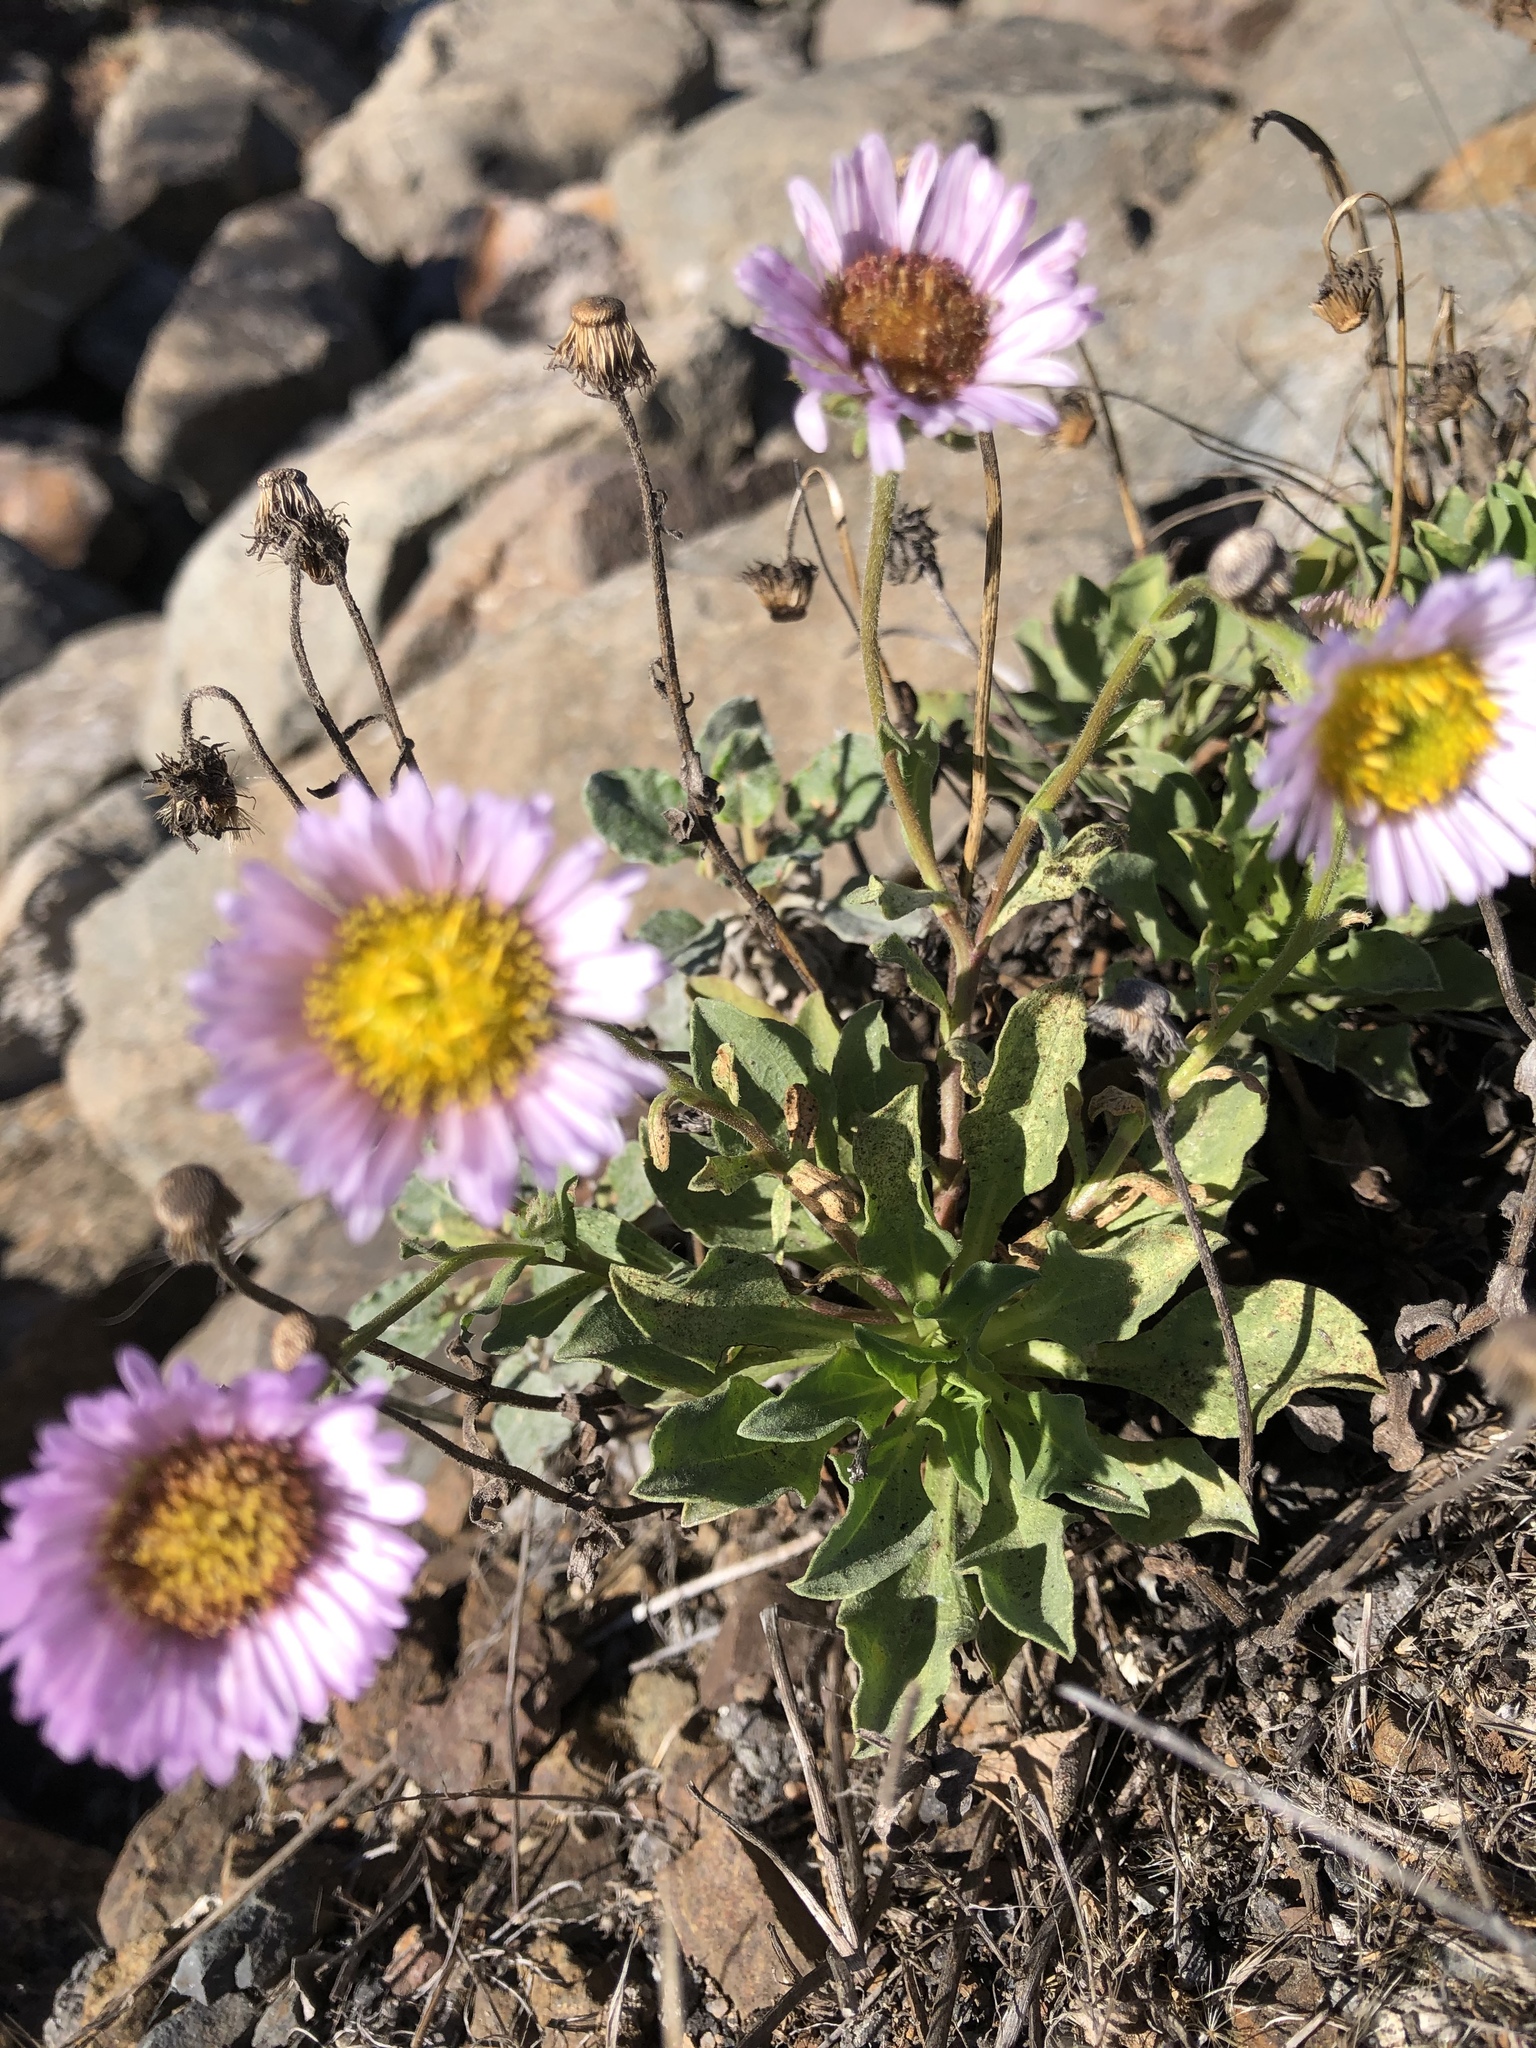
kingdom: Plantae
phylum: Tracheophyta
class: Magnoliopsida
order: Asterales
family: Asteraceae
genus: Erigeron
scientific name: Erigeron glaucus
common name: Seaside daisy
